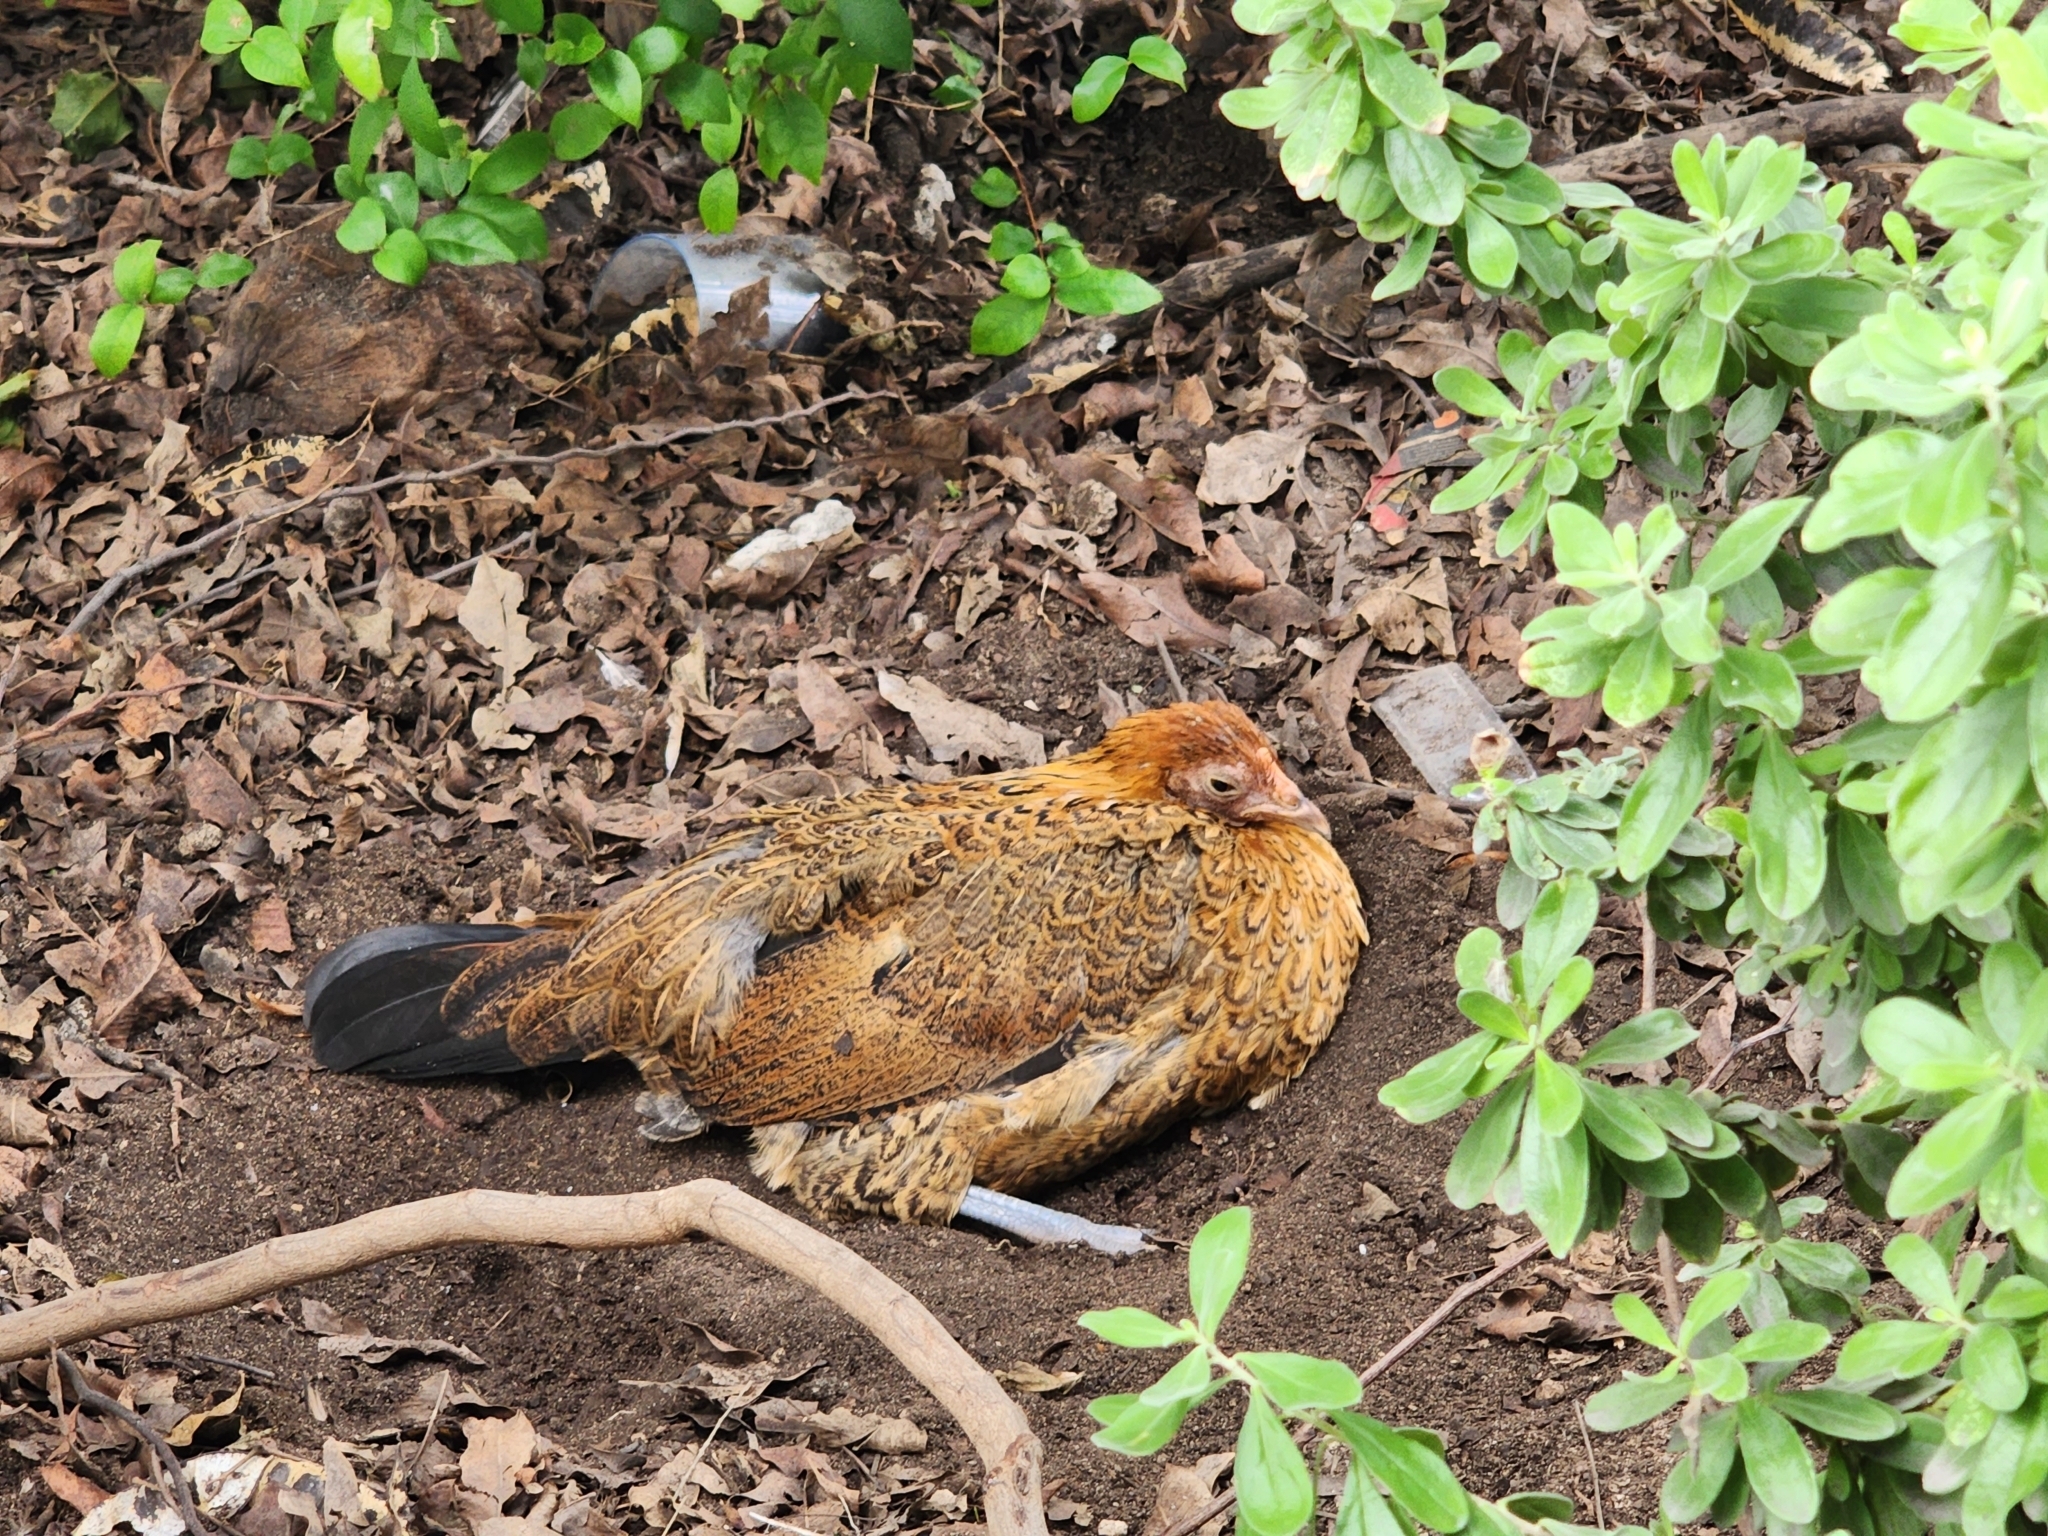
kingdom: Animalia
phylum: Chordata
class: Aves
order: Galliformes
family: Phasianidae
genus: Gallus
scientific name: Gallus gallus
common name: Red junglefowl
